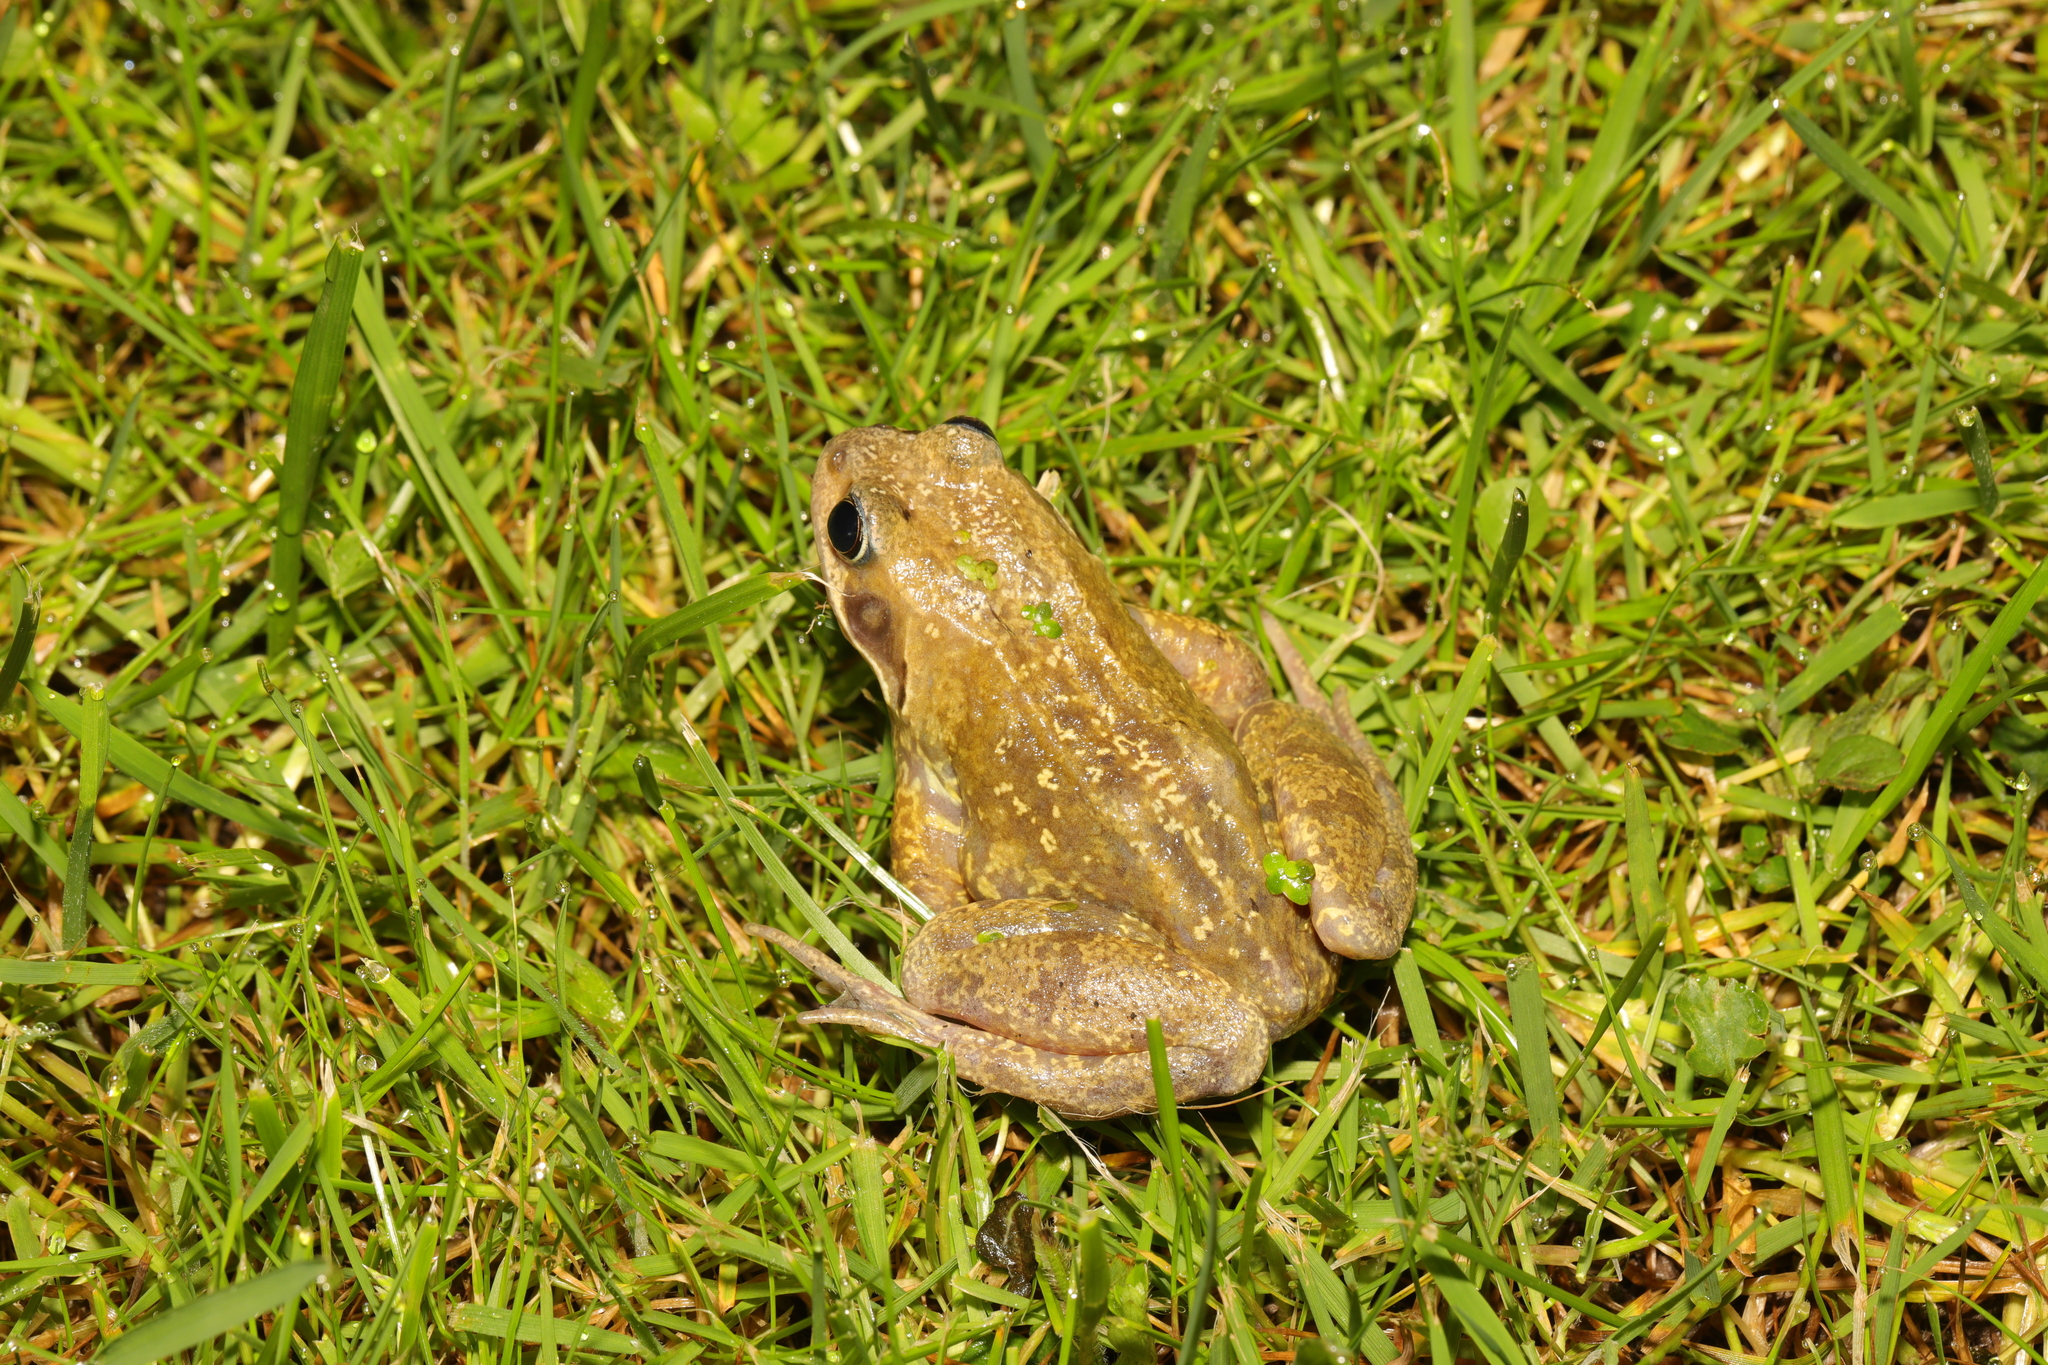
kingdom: Animalia
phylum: Chordata
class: Amphibia
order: Anura
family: Ranidae
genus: Rana
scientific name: Rana temporaria
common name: Common frog
